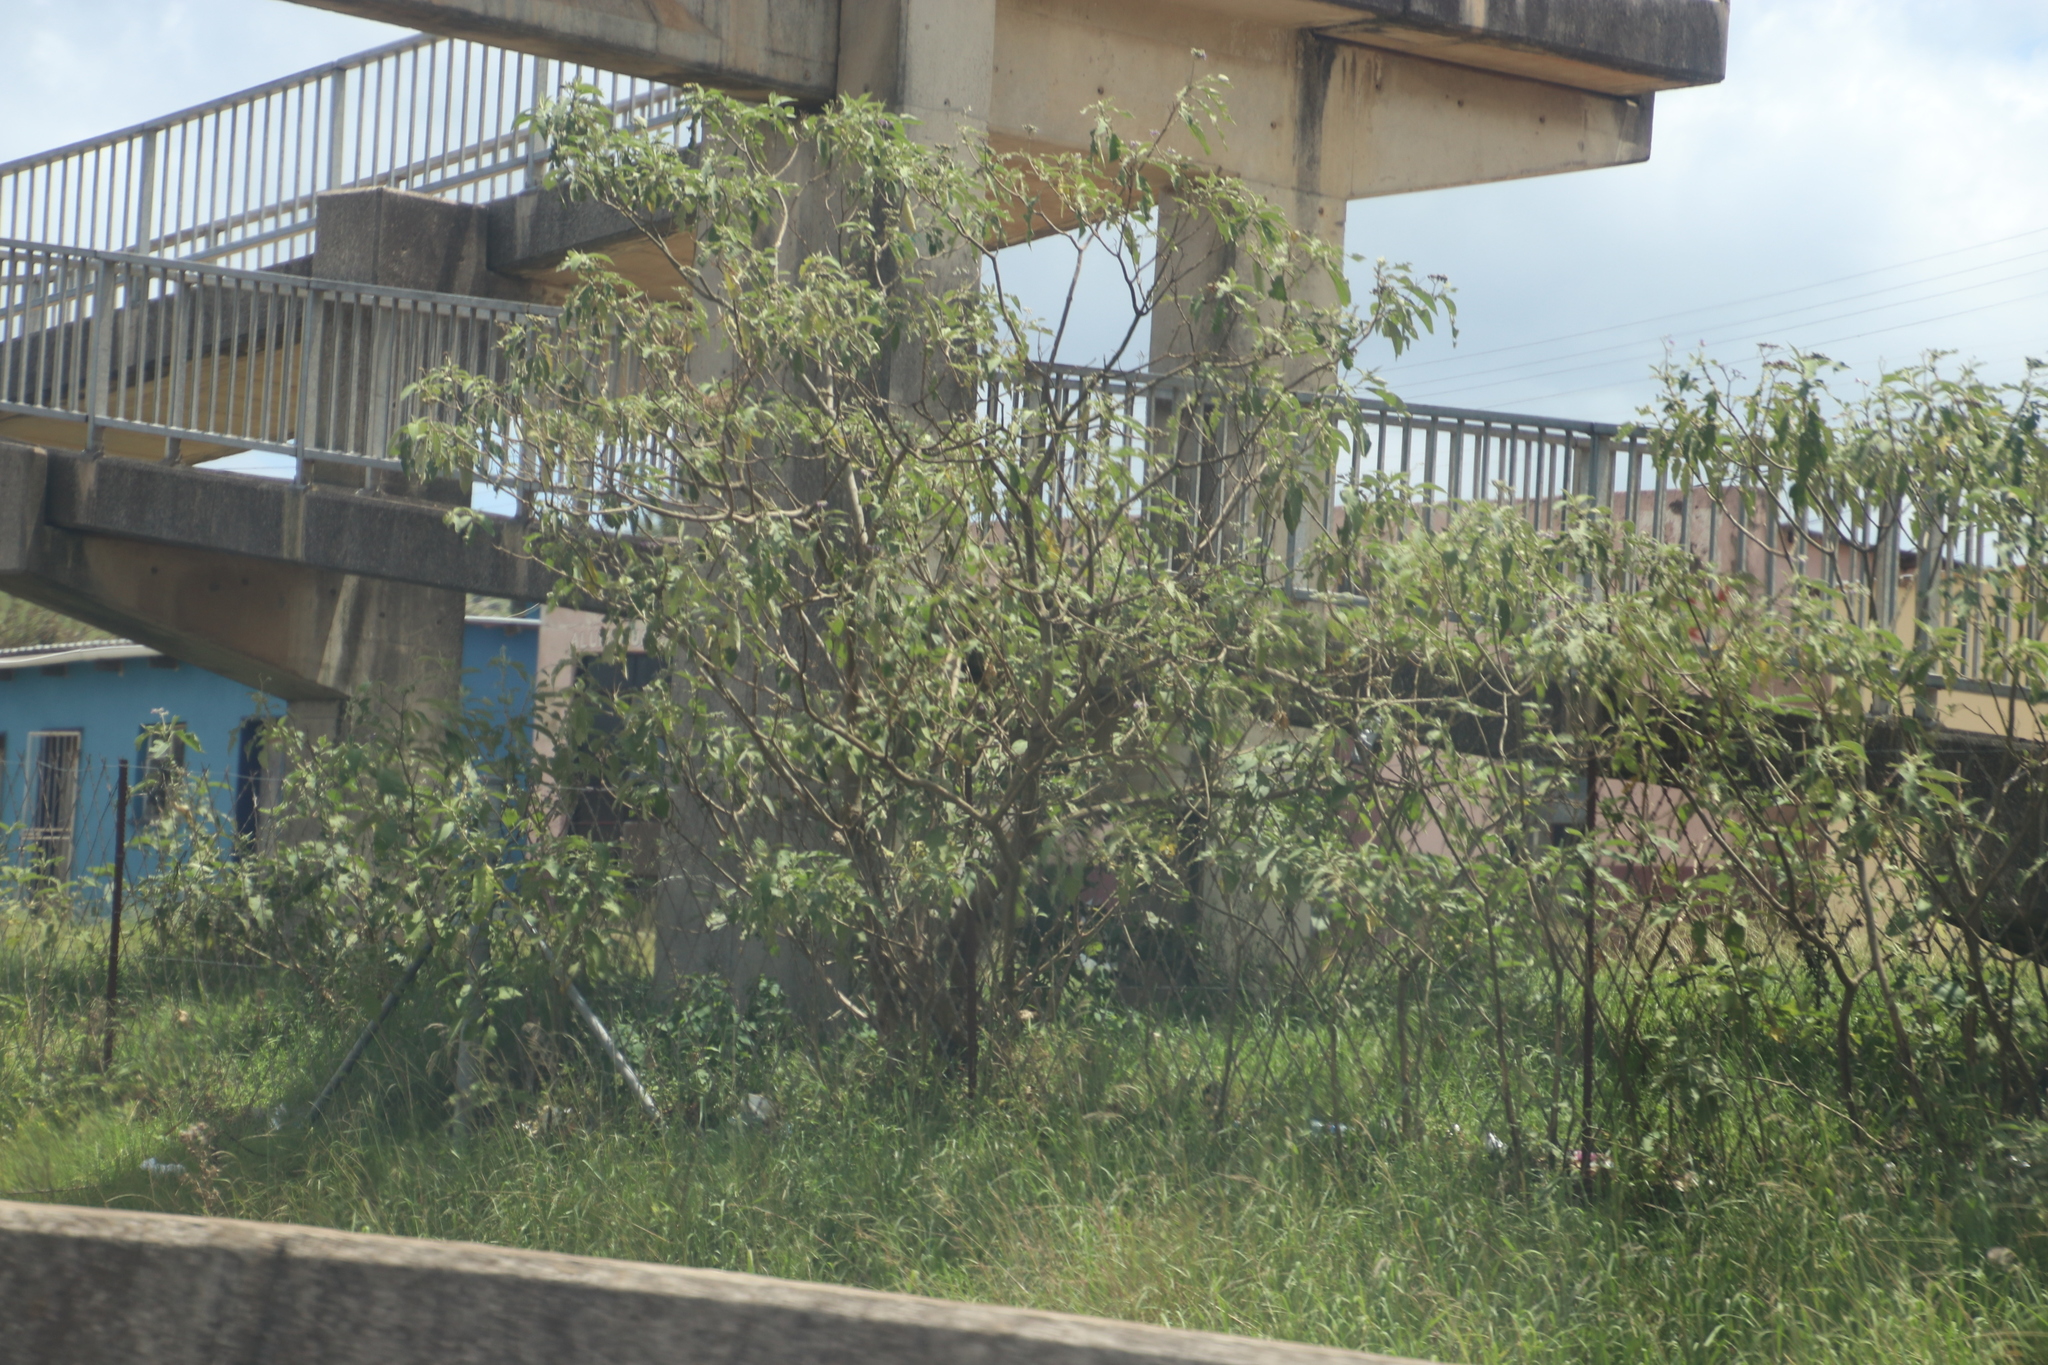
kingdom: Plantae
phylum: Tracheophyta
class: Magnoliopsida
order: Solanales
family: Solanaceae
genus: Solanum
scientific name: Solanum mauritianum
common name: Earleaf nightshade
